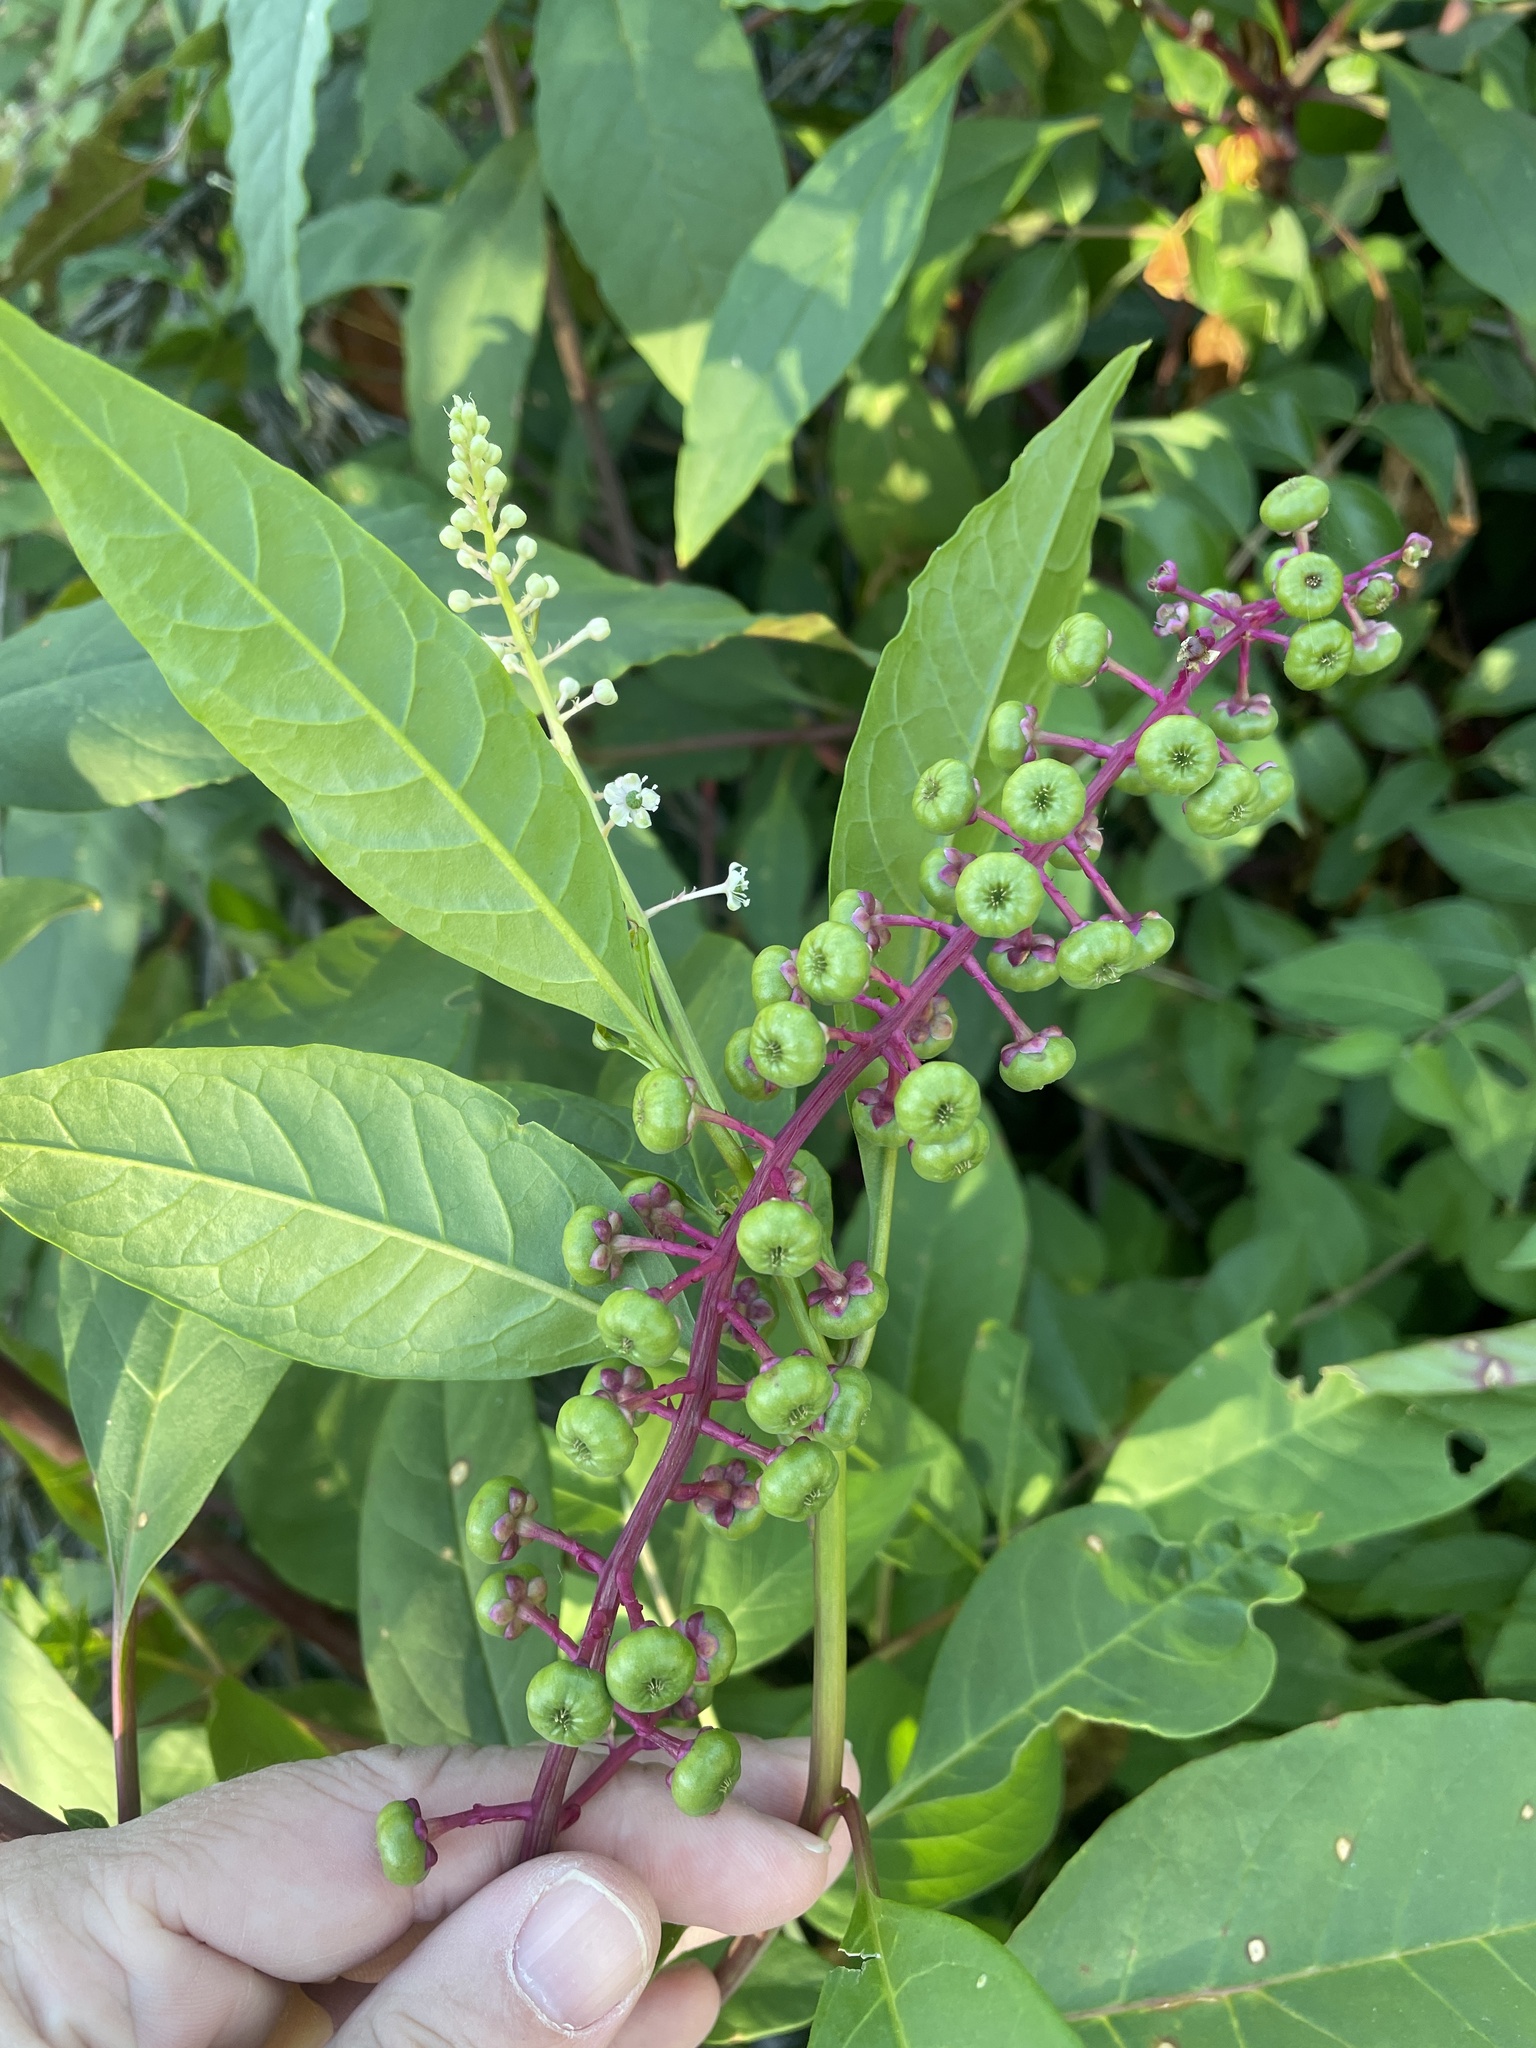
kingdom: Plantae
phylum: Tracheophyta
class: Magnoliopsida
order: Caryophyllales
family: Phytolaccaceae
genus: Phytolacca
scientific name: Phytolacca americana
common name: American pokeweed
